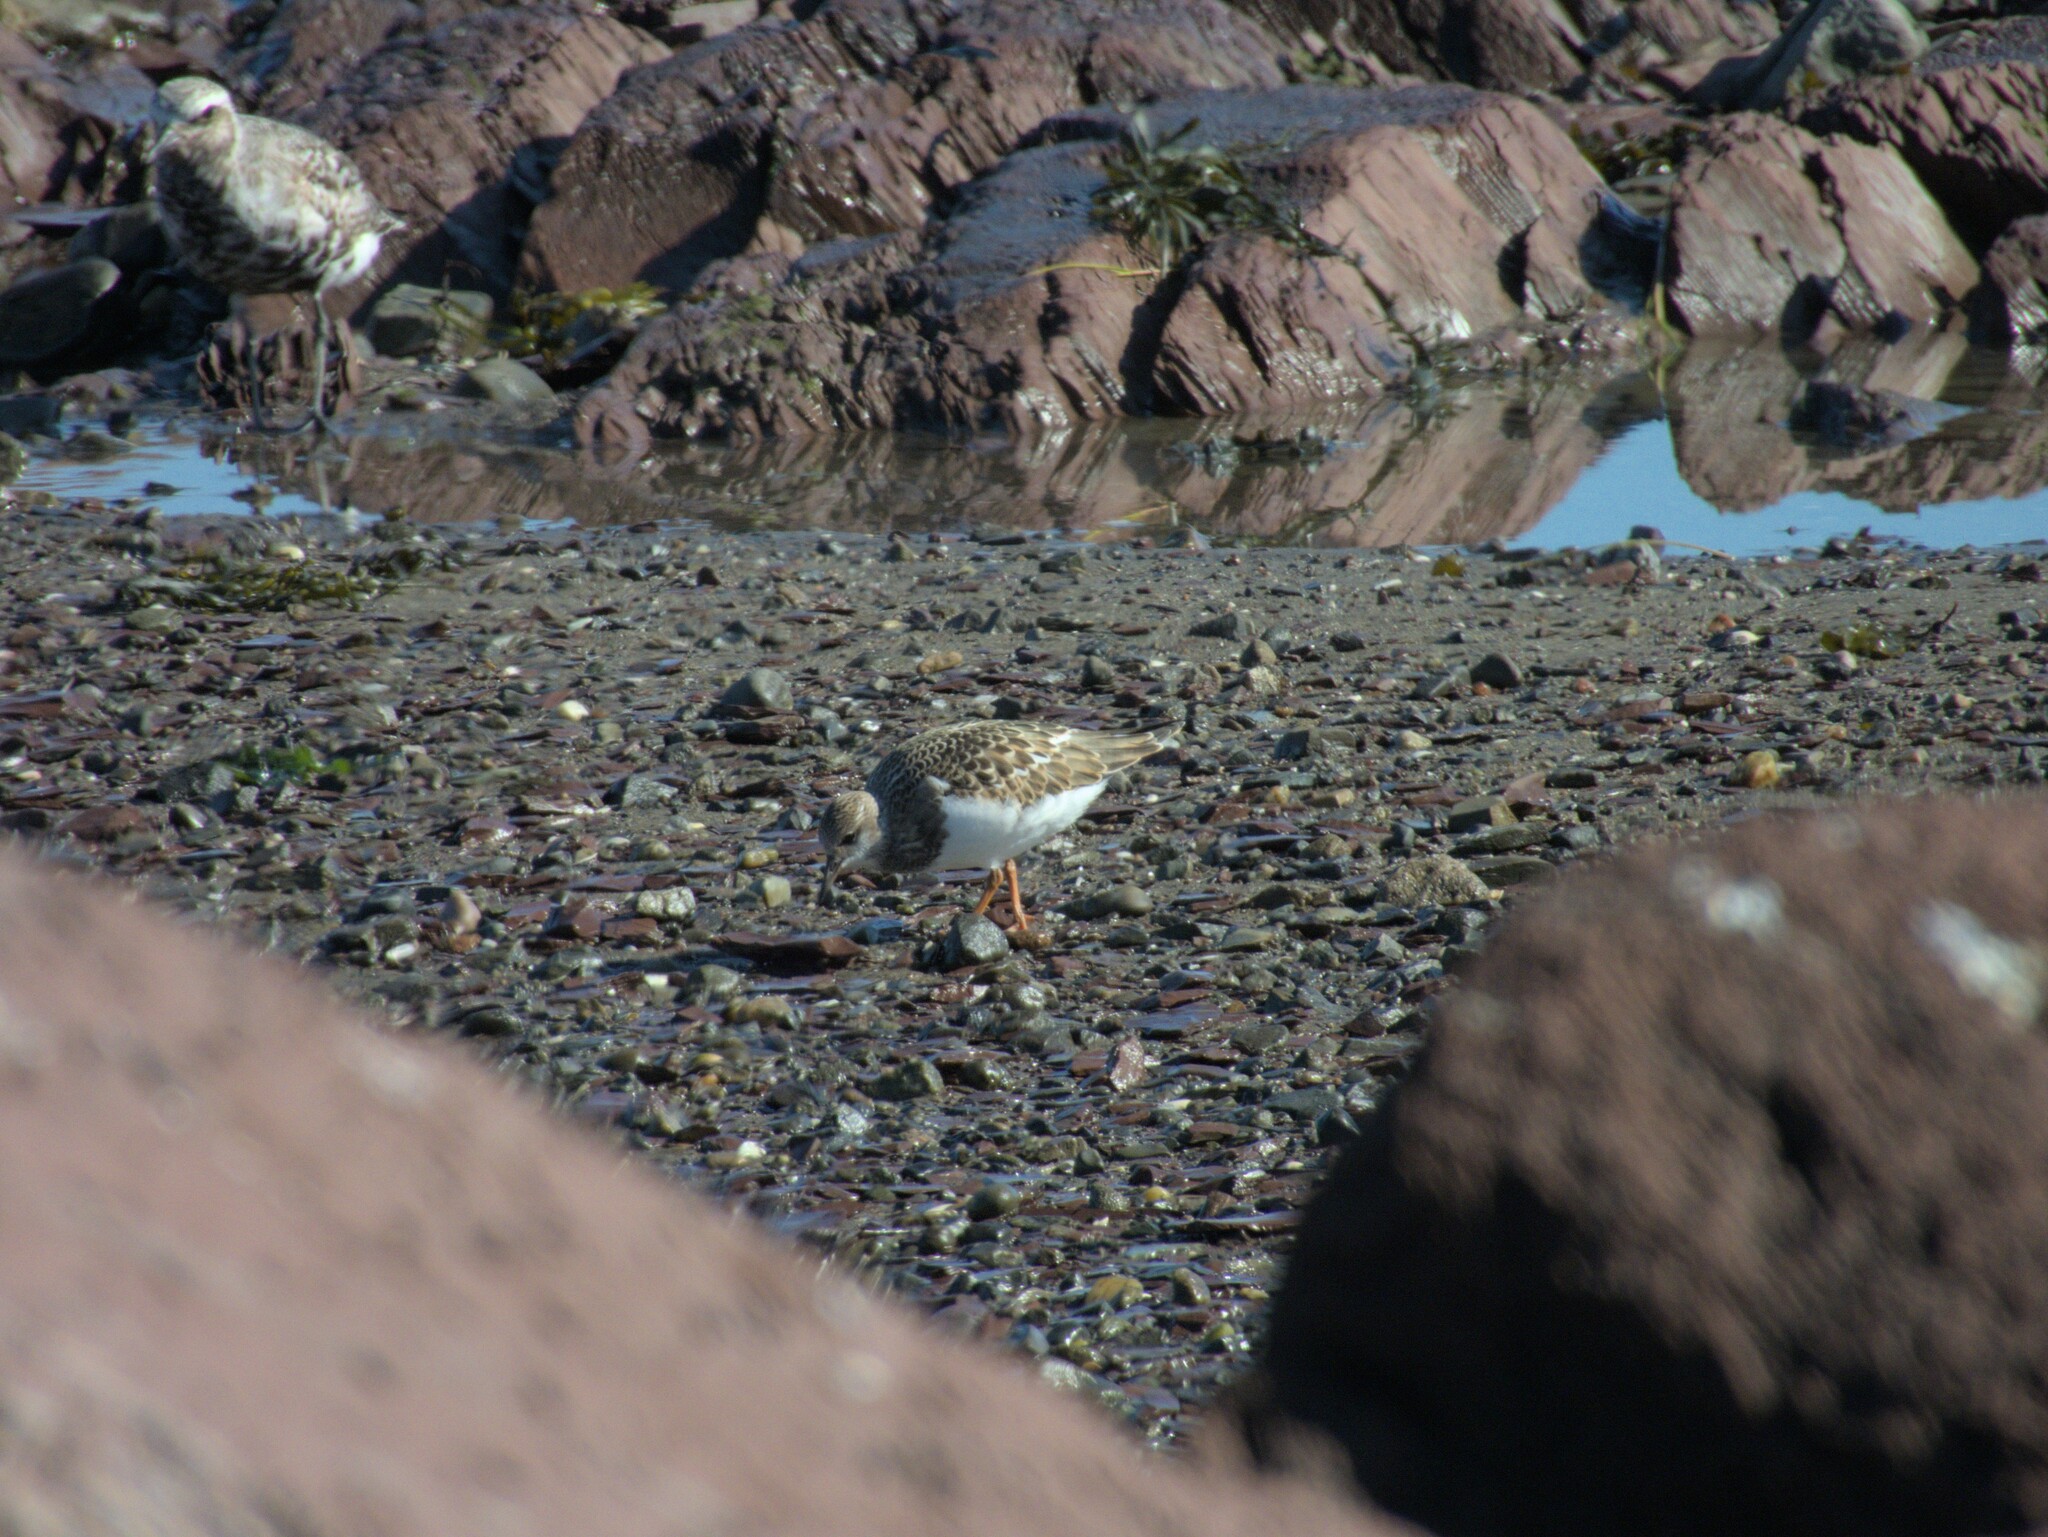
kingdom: Animalia
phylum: Chordata
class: Aves
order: Charadriiformes
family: Scolopacidae
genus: Arenaria
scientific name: Arenaria interpres
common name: Ruddy turnstone
